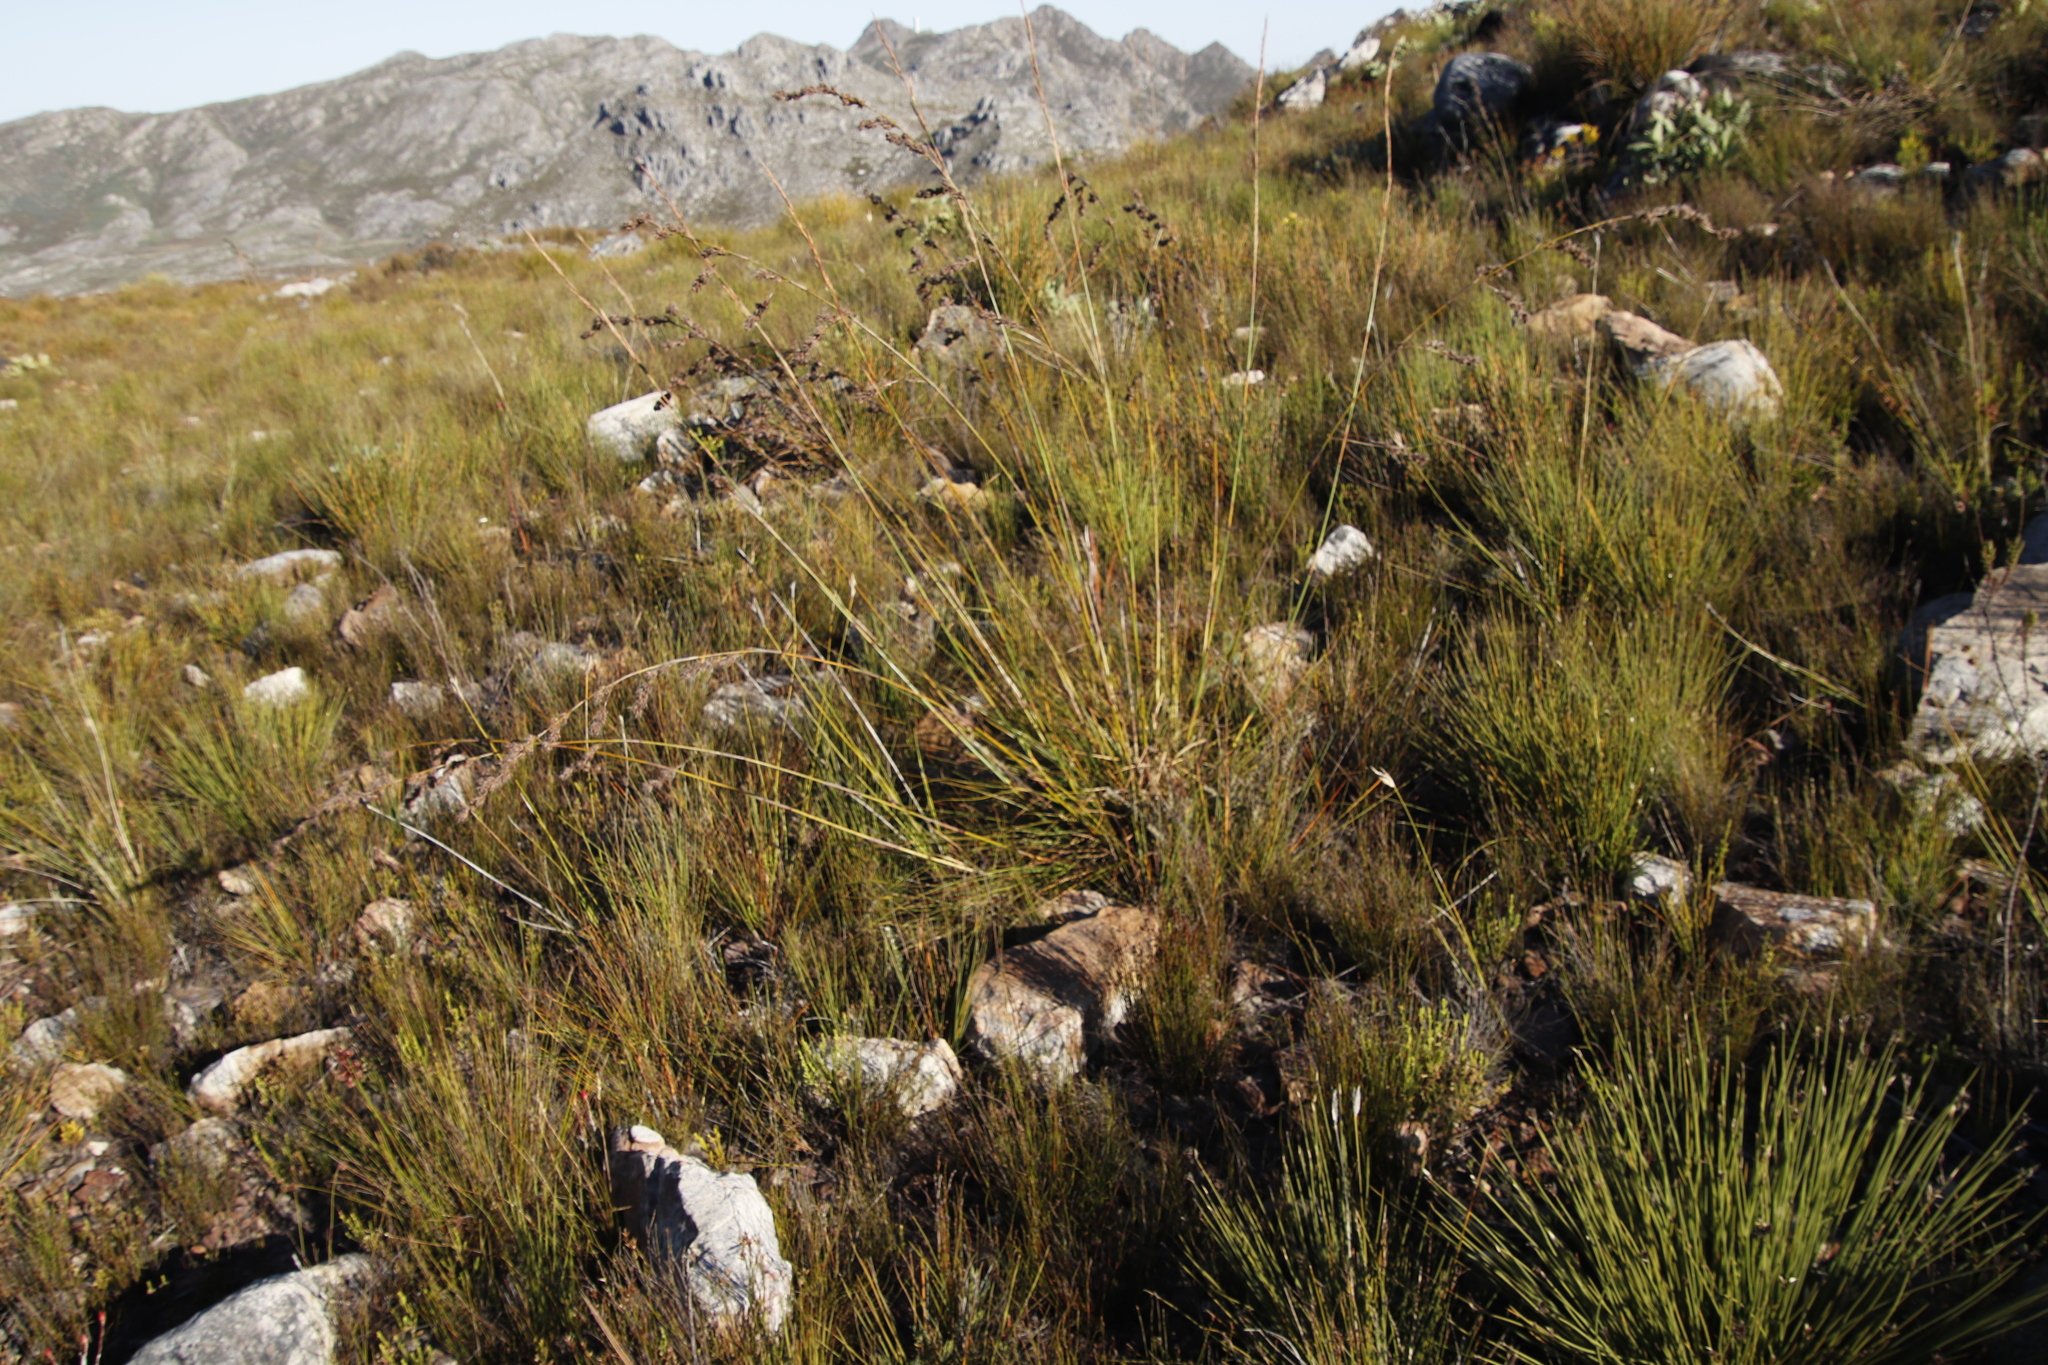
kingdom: Plantae
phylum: Tracheophyta
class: Liliopsida
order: Poales
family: Cyperaceae
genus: Tetraria
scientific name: Tetraria involucrata
